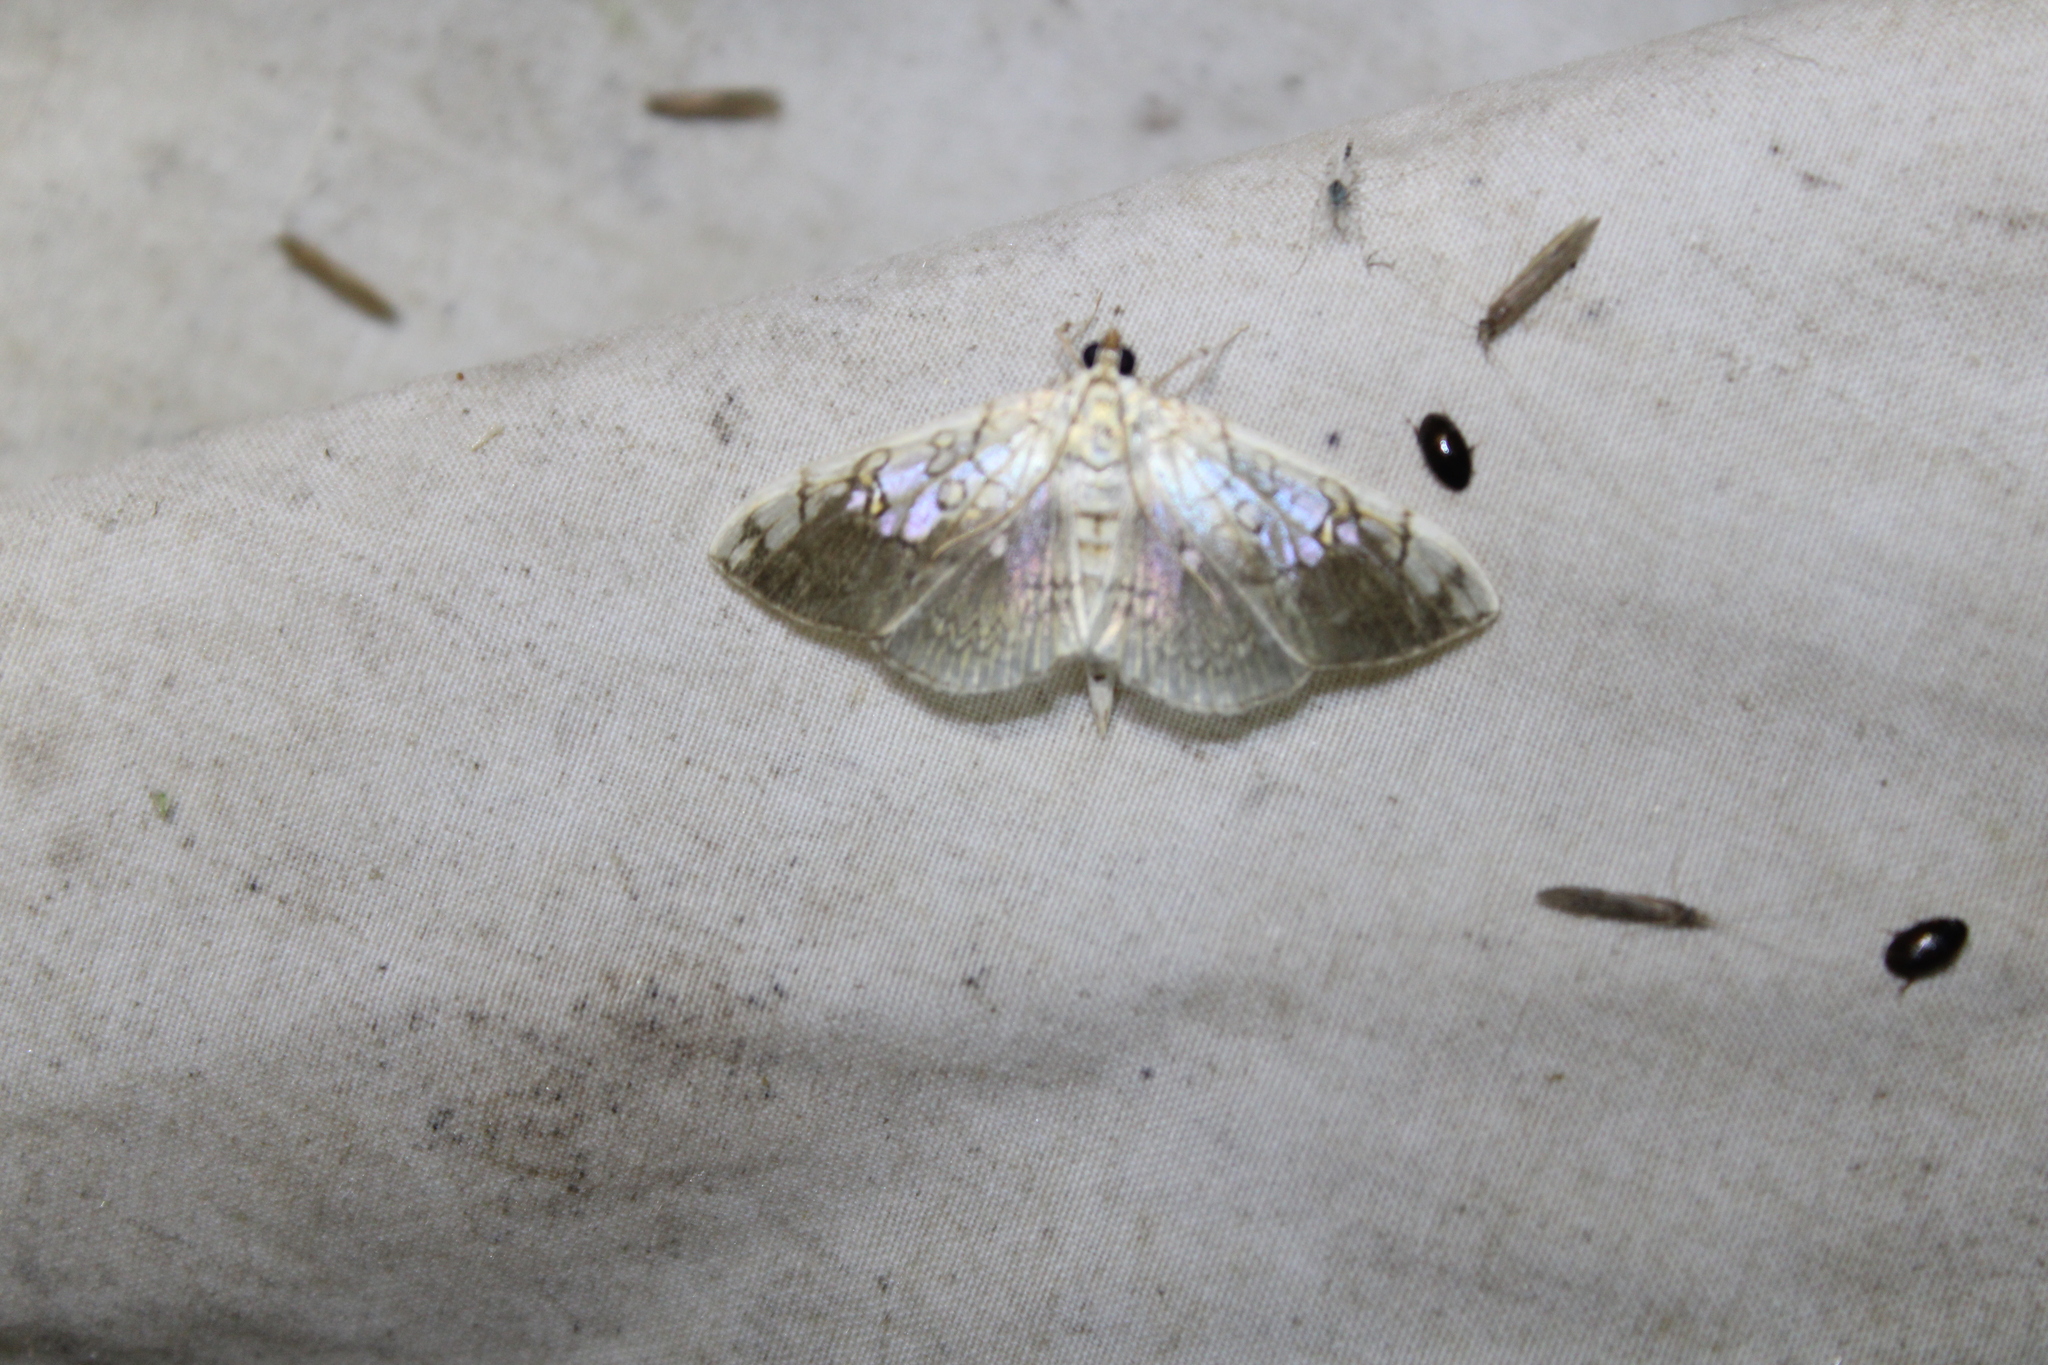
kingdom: Animalia
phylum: Arthropoda
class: Insecta
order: Lepidoptera
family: Crambidae
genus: Pantographa
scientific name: Pantographa limata
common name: Basswood leafroller moth
